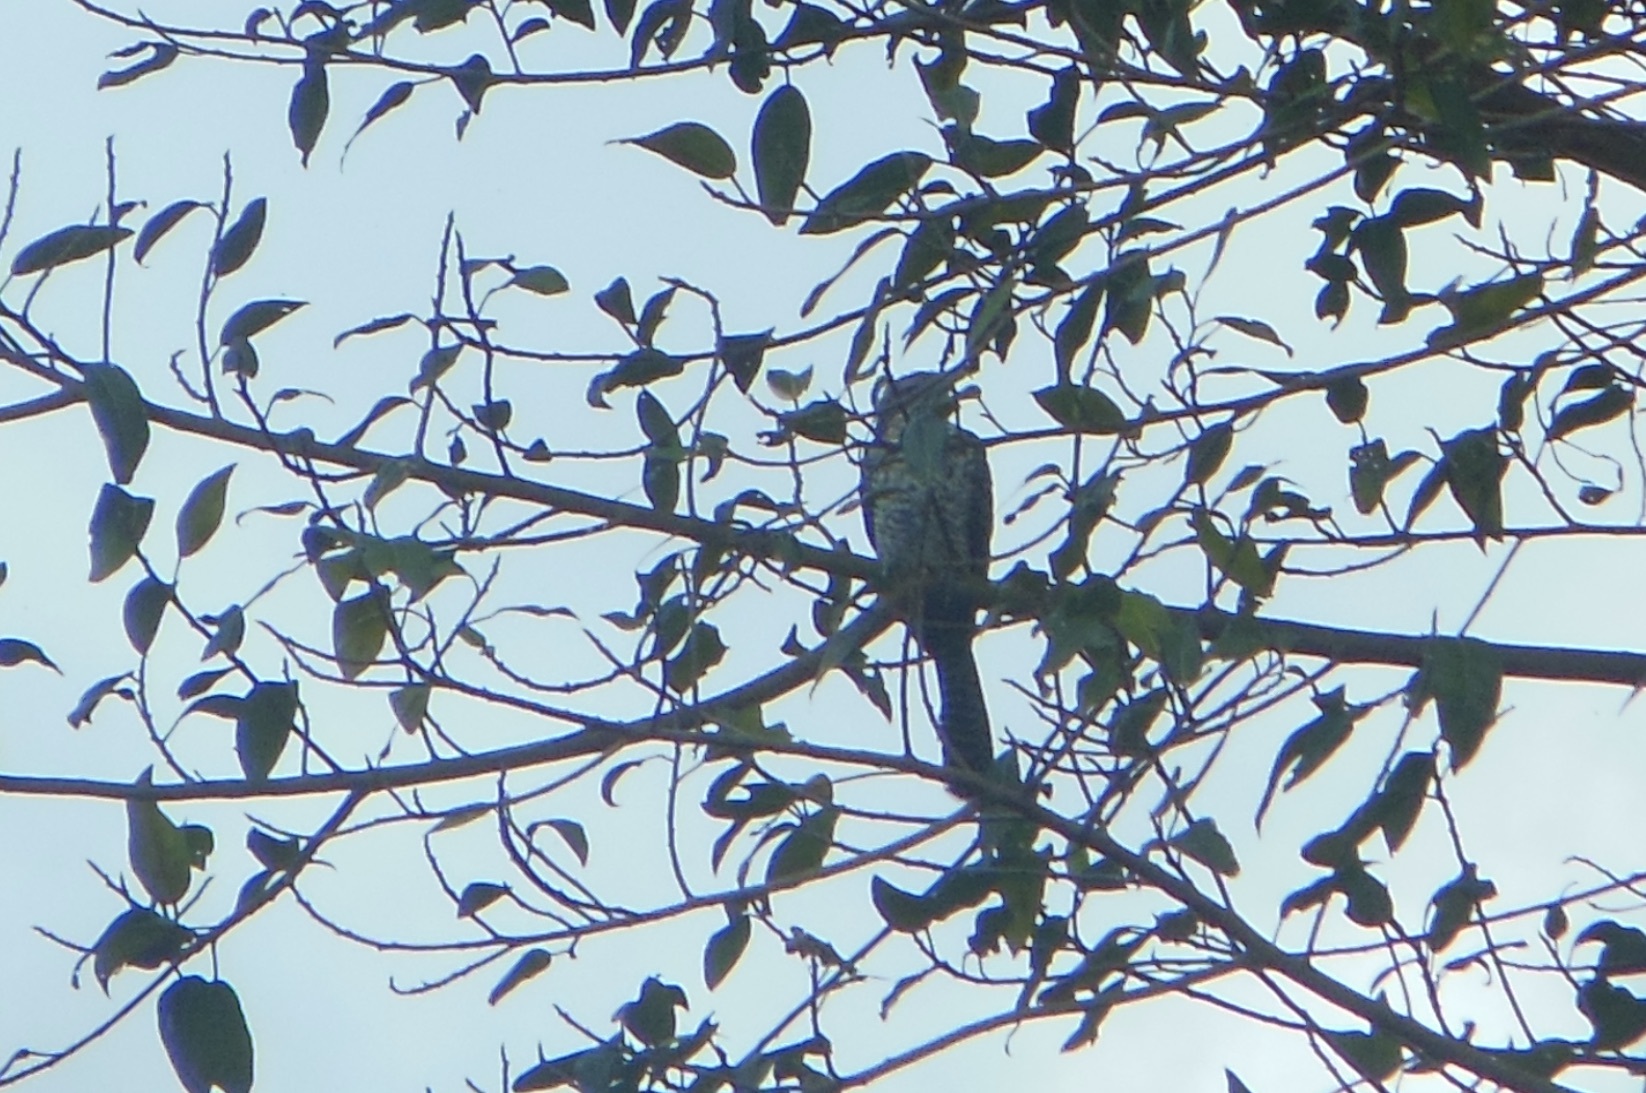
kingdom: Animalia
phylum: Chordata
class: Aves
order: Cuculiformes
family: Cuculidae
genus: Eudynamys
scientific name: Eudynamys scolopaceus
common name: Asian koel
